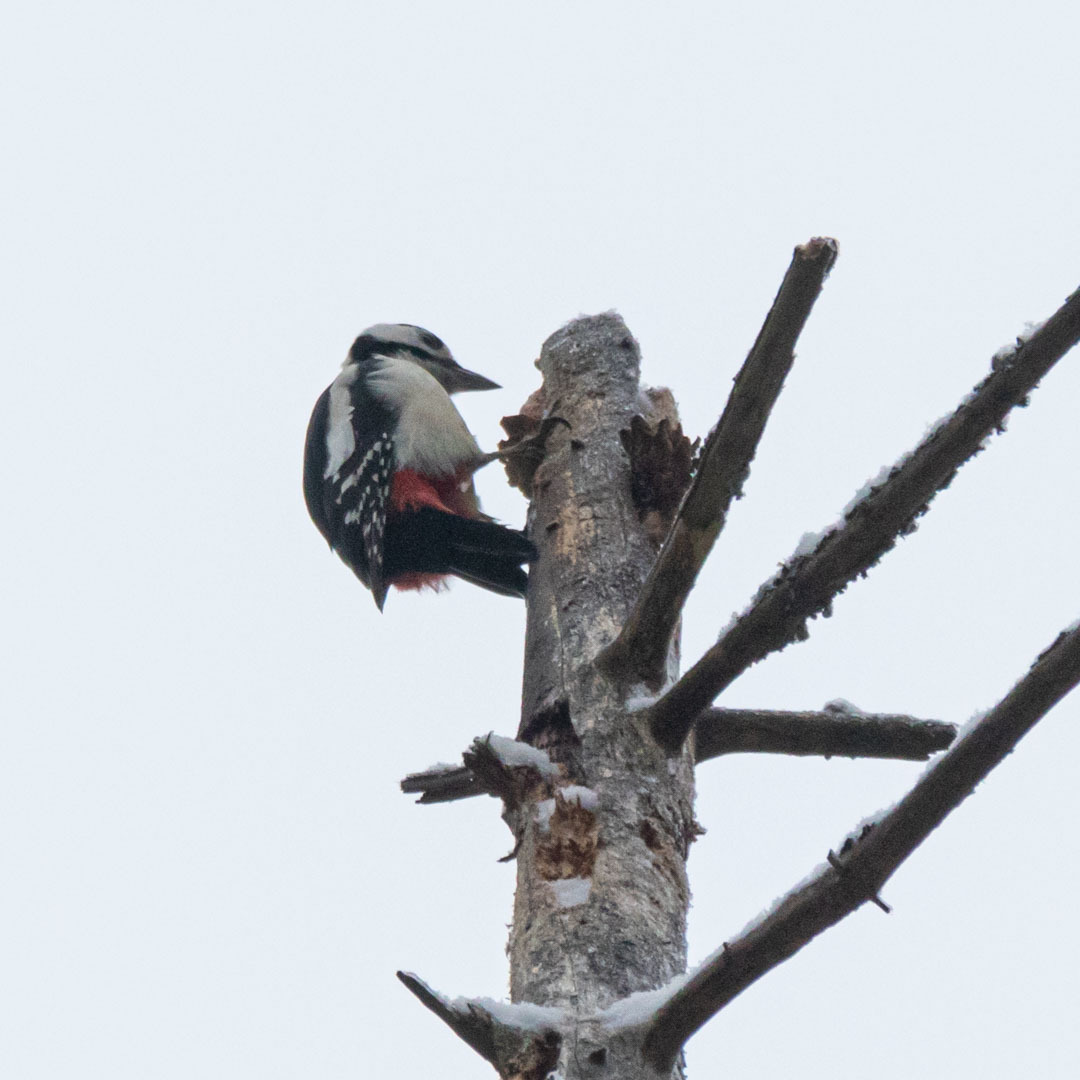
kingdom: Animalia
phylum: Chordata
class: Aves
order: Piciformes
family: Picidae
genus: Dendrocopos
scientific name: Dendrocopos major
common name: Great spotted woodpecker
